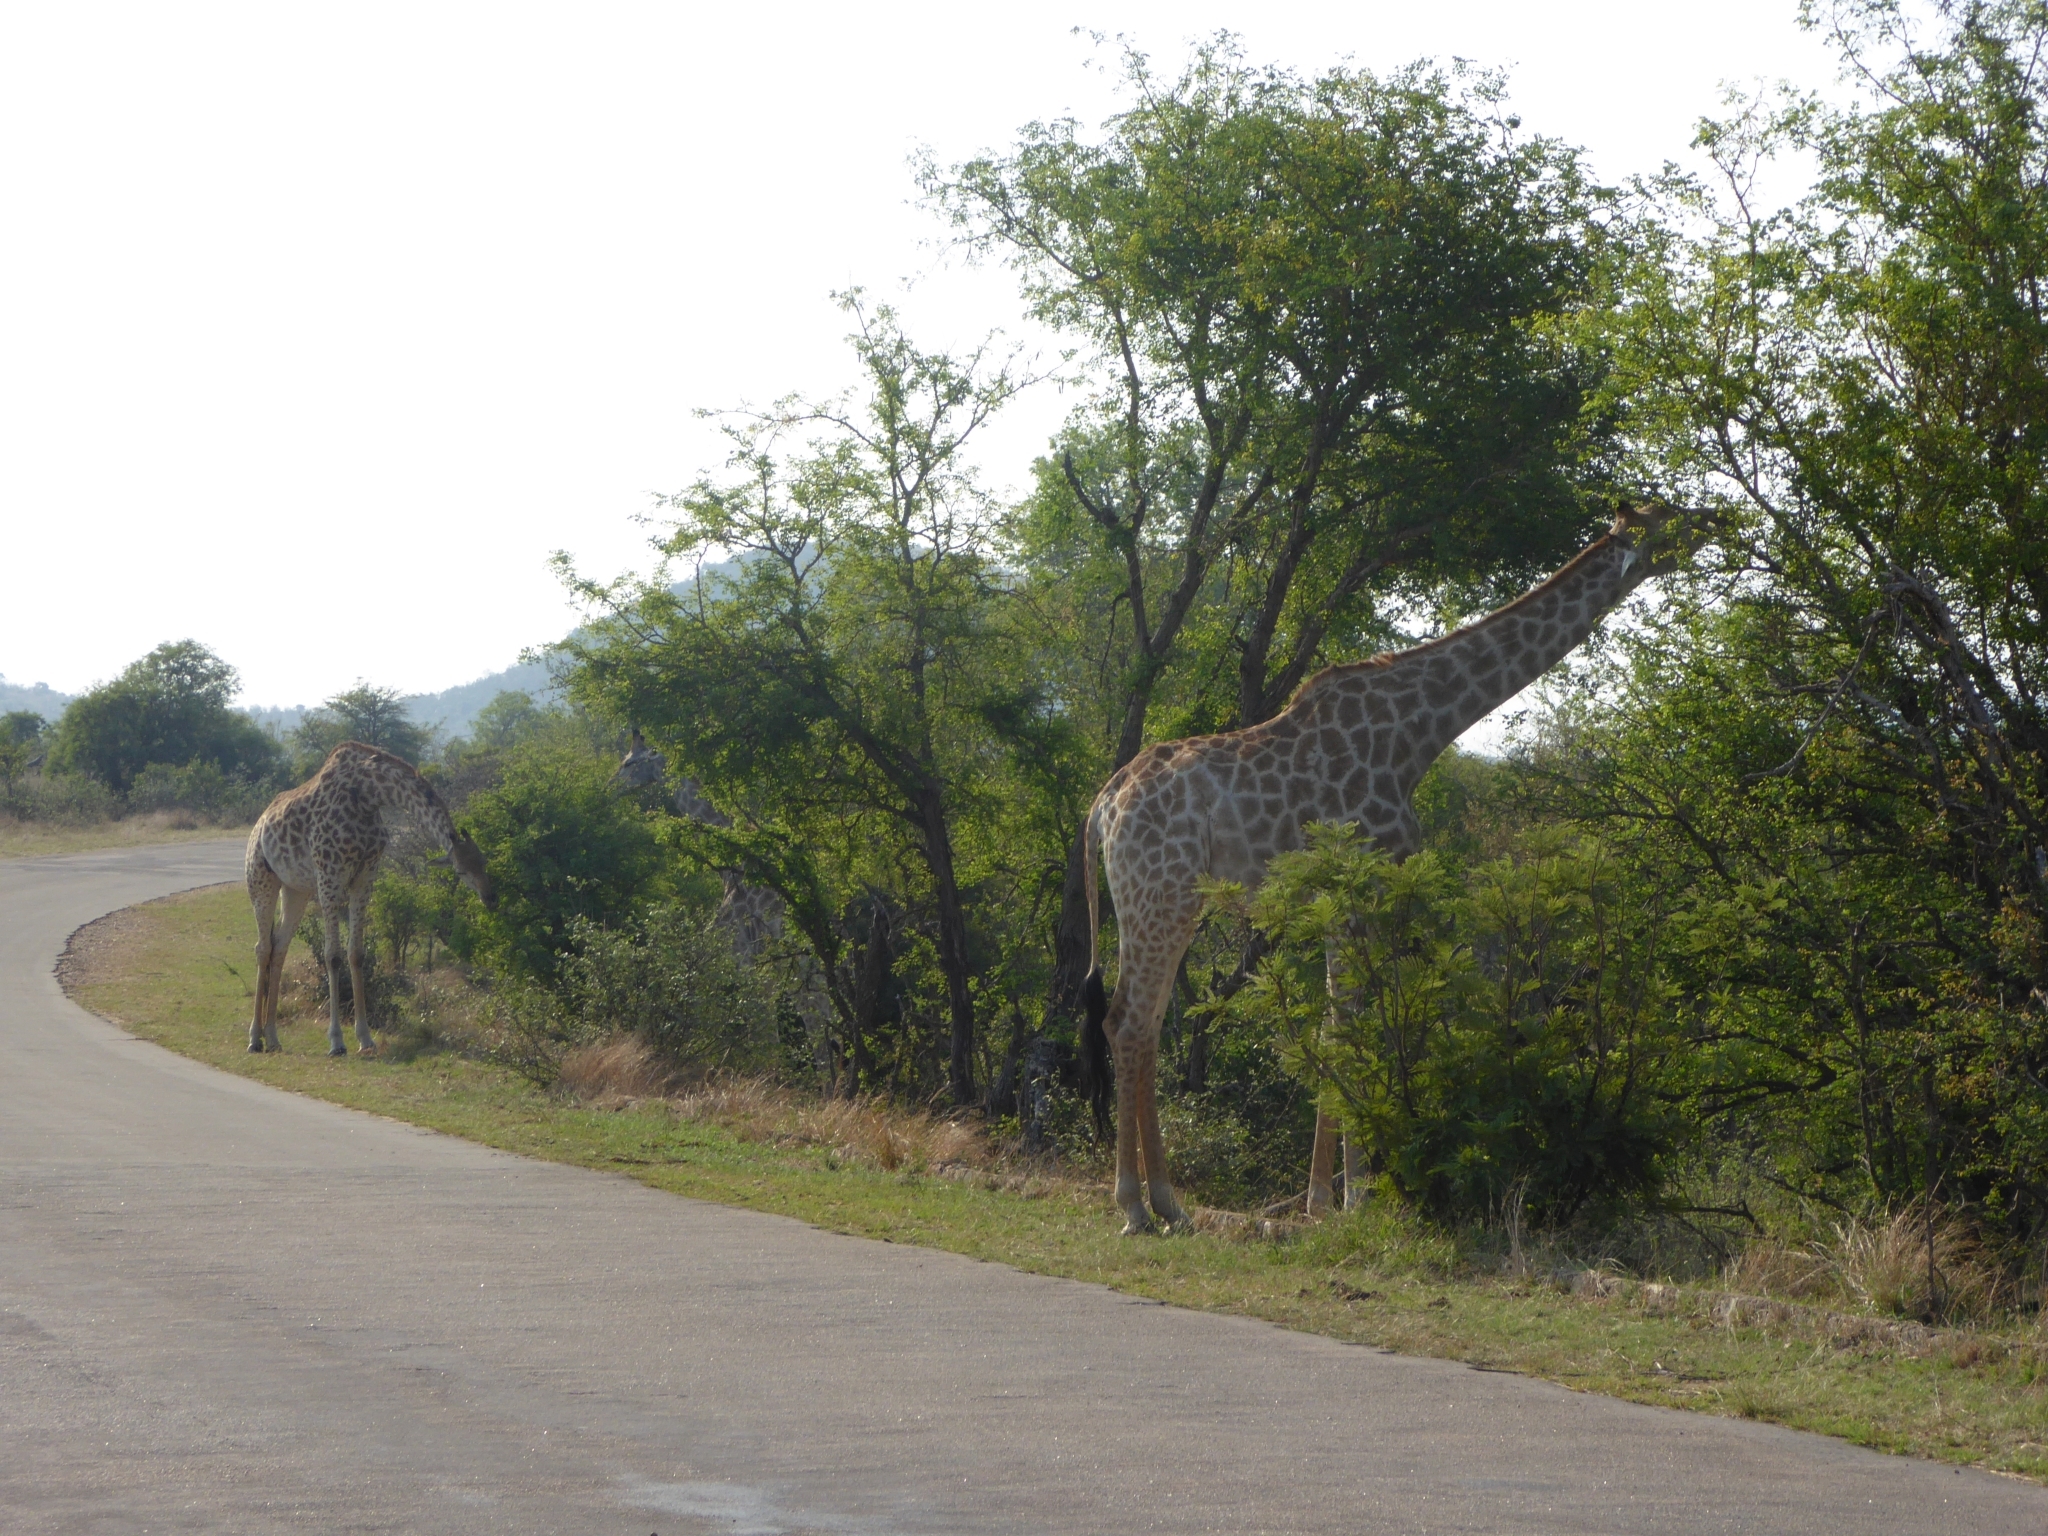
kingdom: Animalia
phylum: Chordata
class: Mammalia
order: Artiodactyla
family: Giraffidae
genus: Giraffa
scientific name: Giraffa giraffa
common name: Southern giraffe
